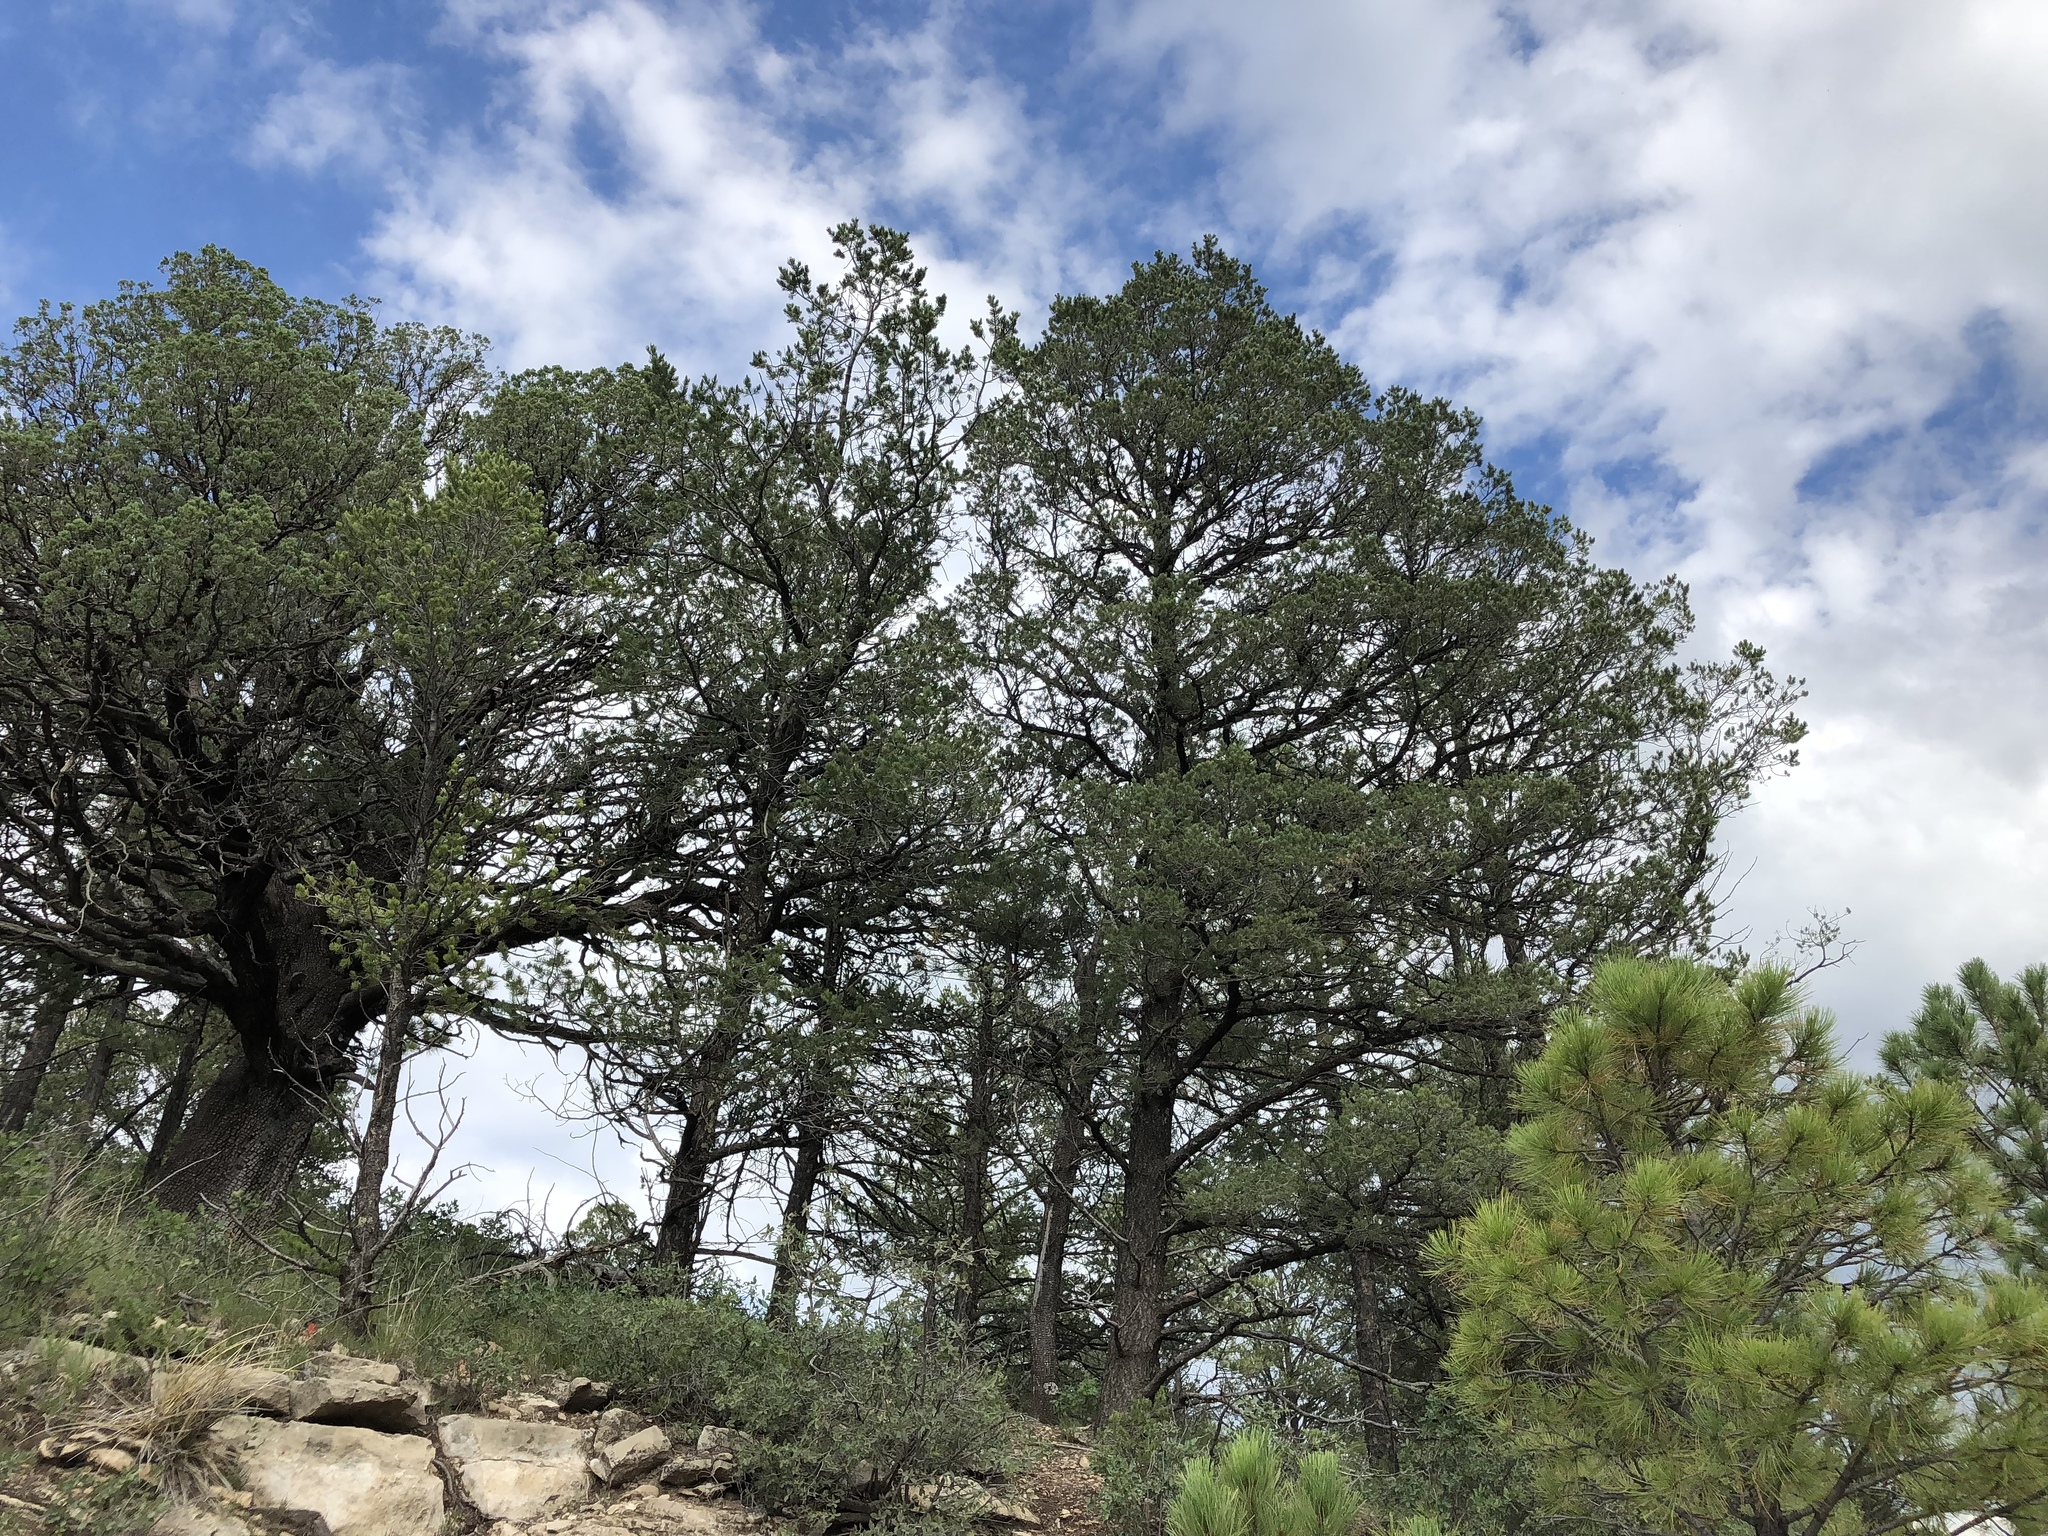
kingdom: Plantae
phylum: Tracheophyta
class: Pinopsida
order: Pinales
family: Pinaceae
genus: Pinus
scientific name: Pinus edulis
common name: Colorado pinyon
